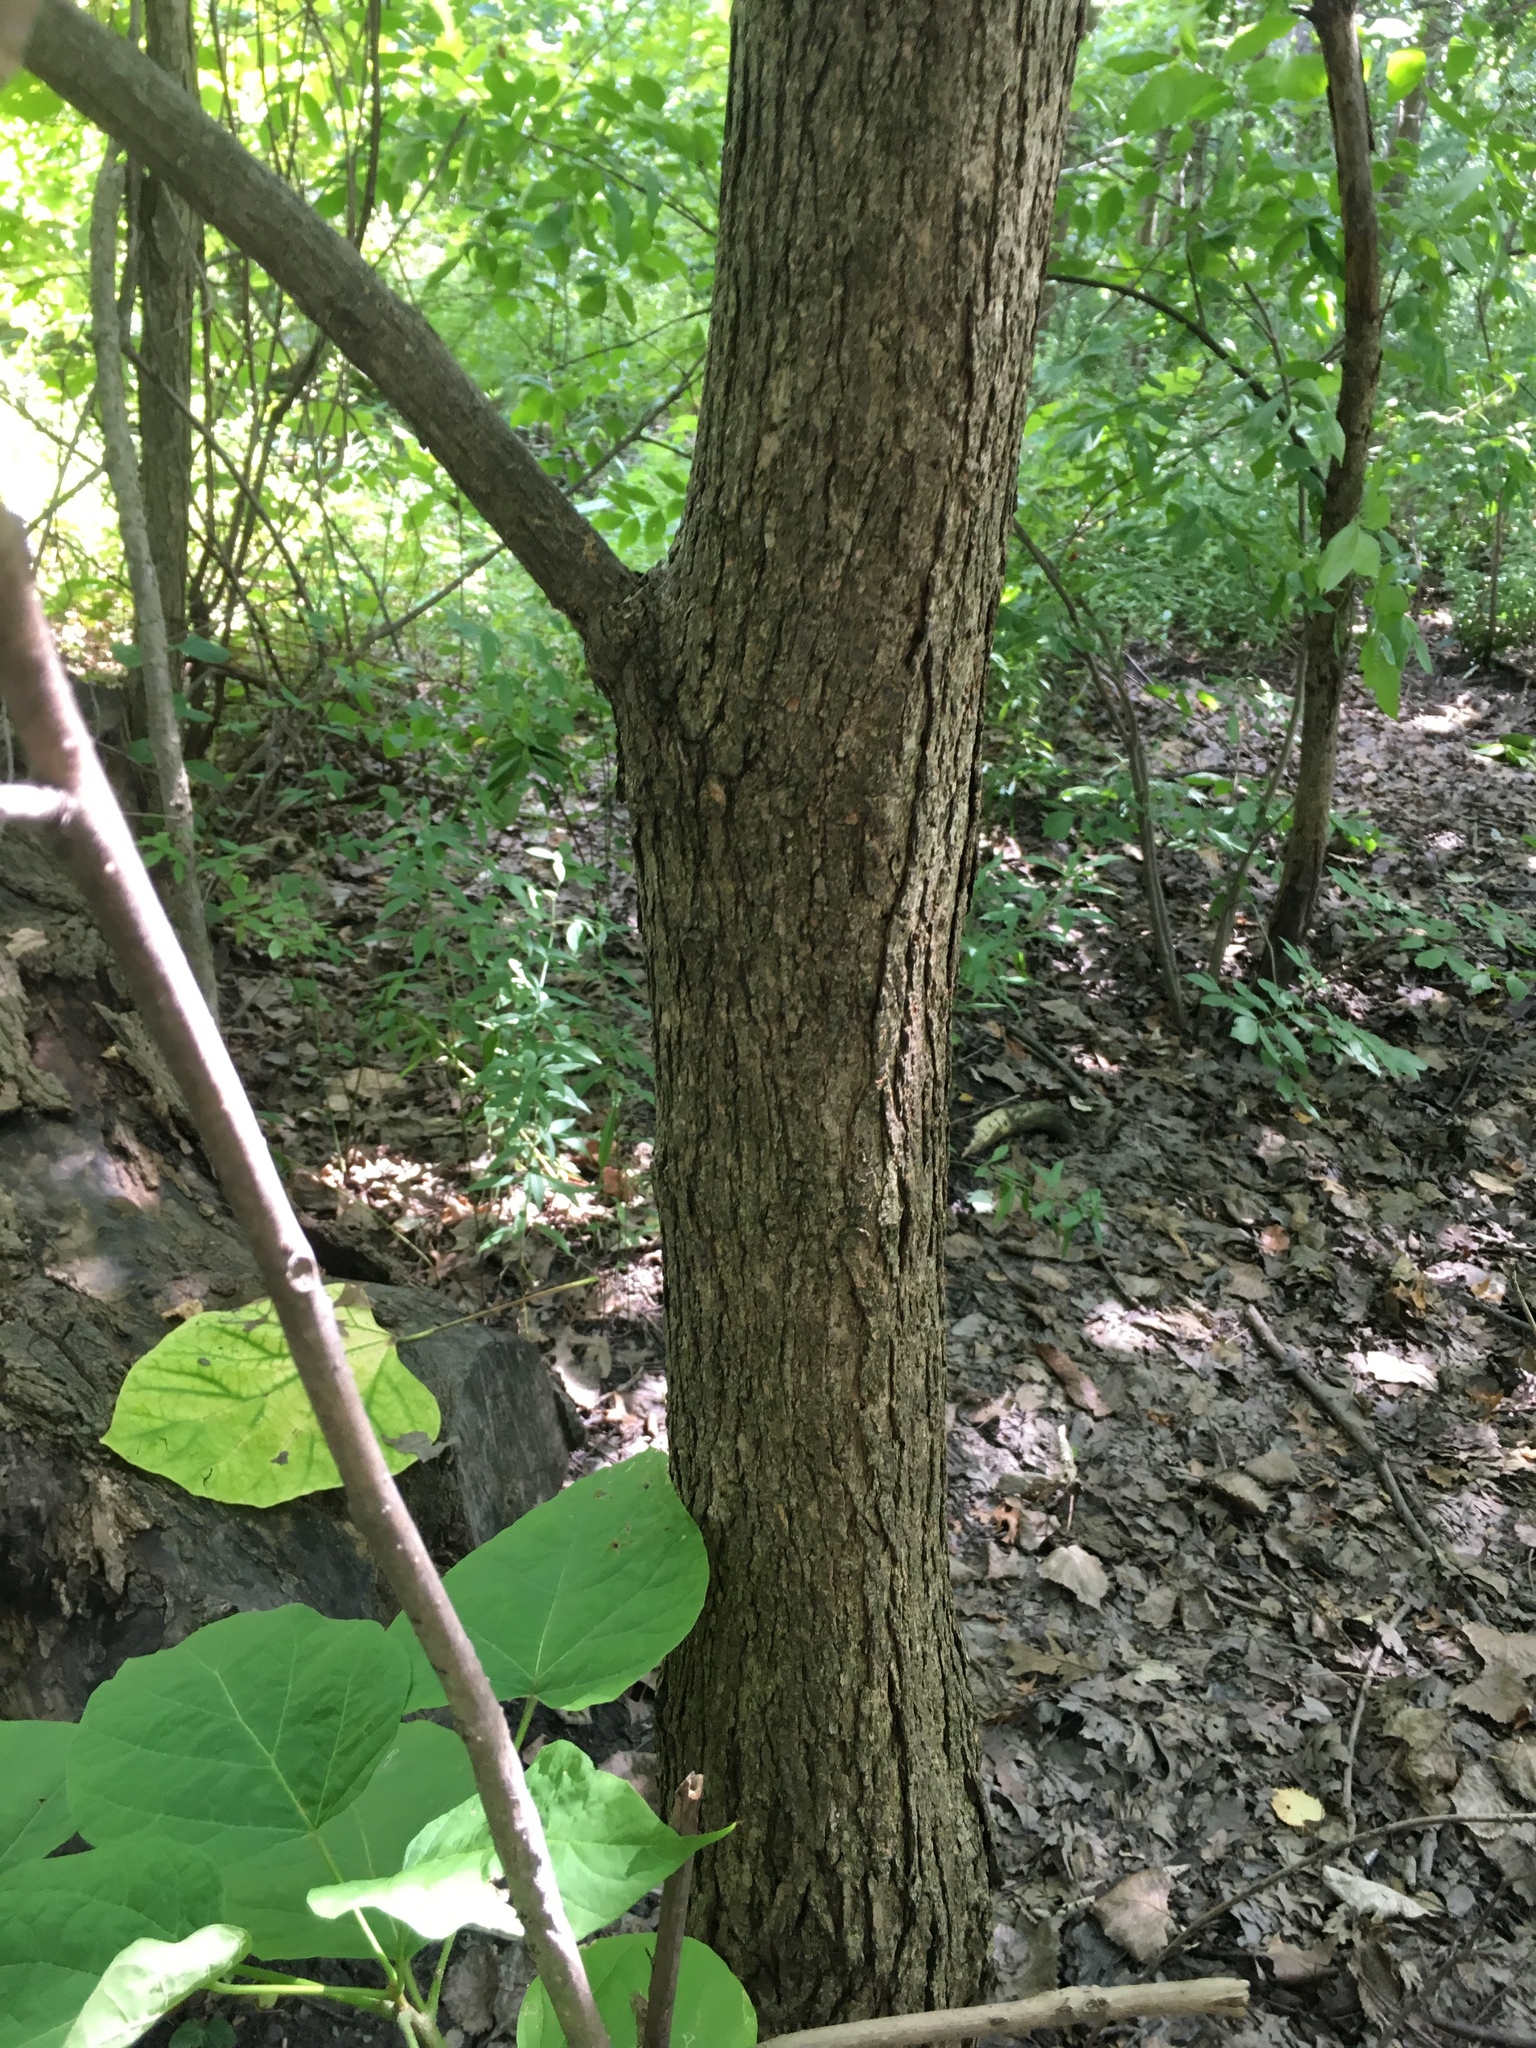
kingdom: Plantae
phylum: Tracheophyta
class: Magnoliopsida
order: Lamiales
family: Bignoniaceae
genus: Catalpa
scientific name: Catalpa speciosa
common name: Northern catalpa
